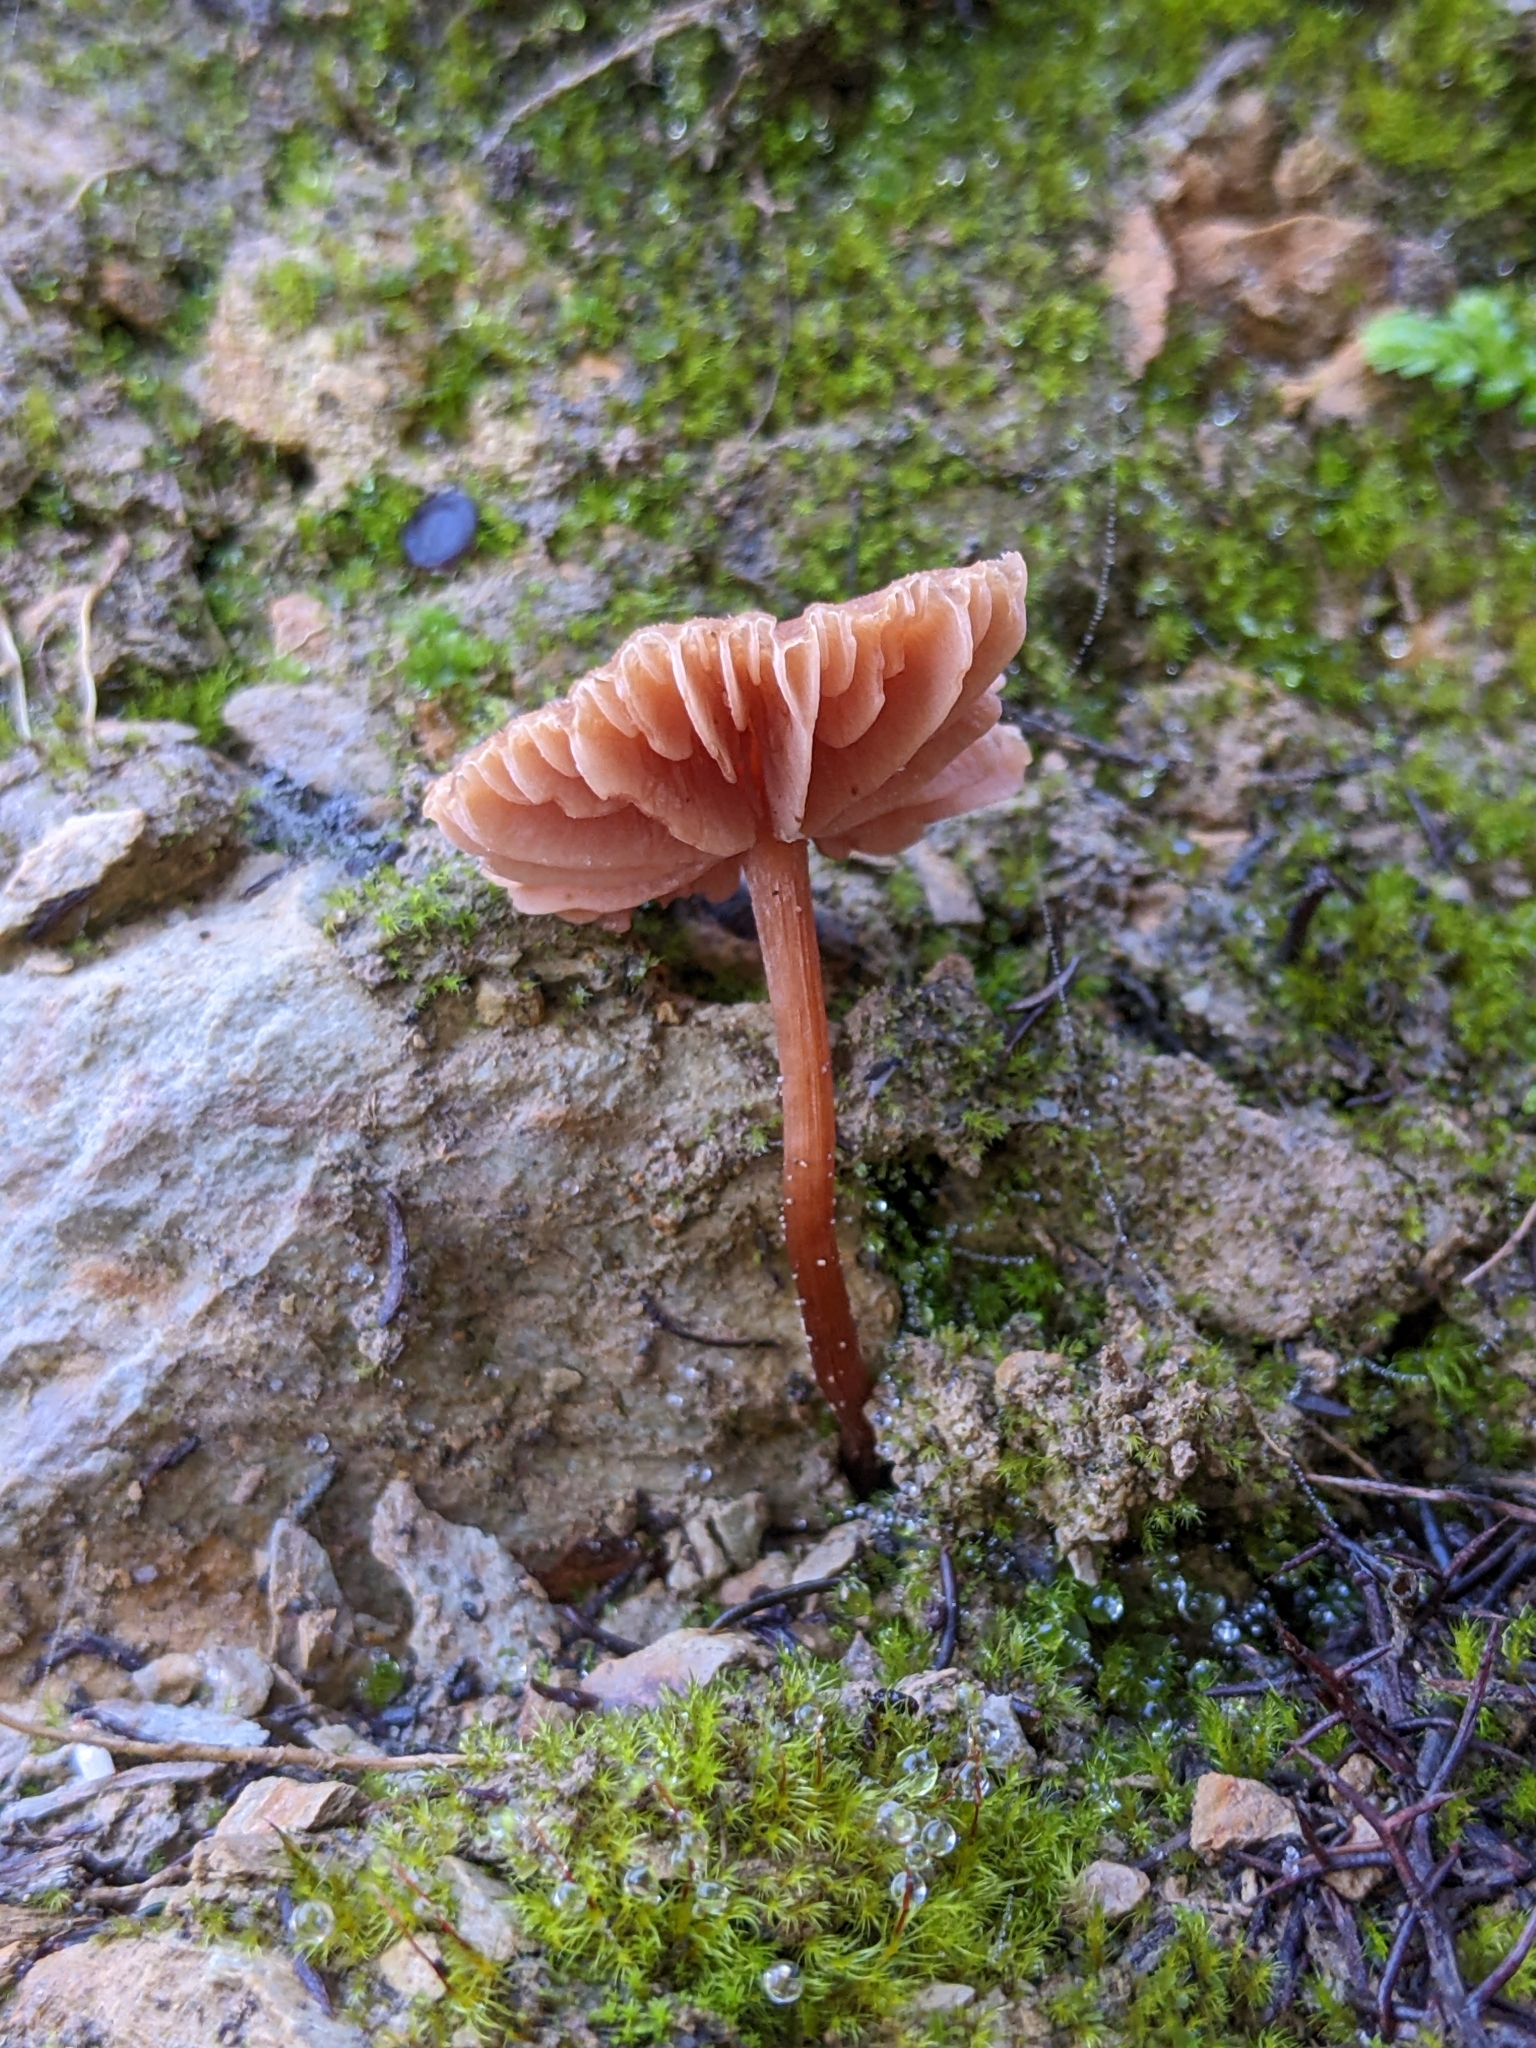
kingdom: Fungi
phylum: Basidiomycota
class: Agaricomycetes
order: Agaricales
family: Hydnangiaceae
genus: Laccaria
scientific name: Laccaria fraterna
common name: Gumtree deceiver
